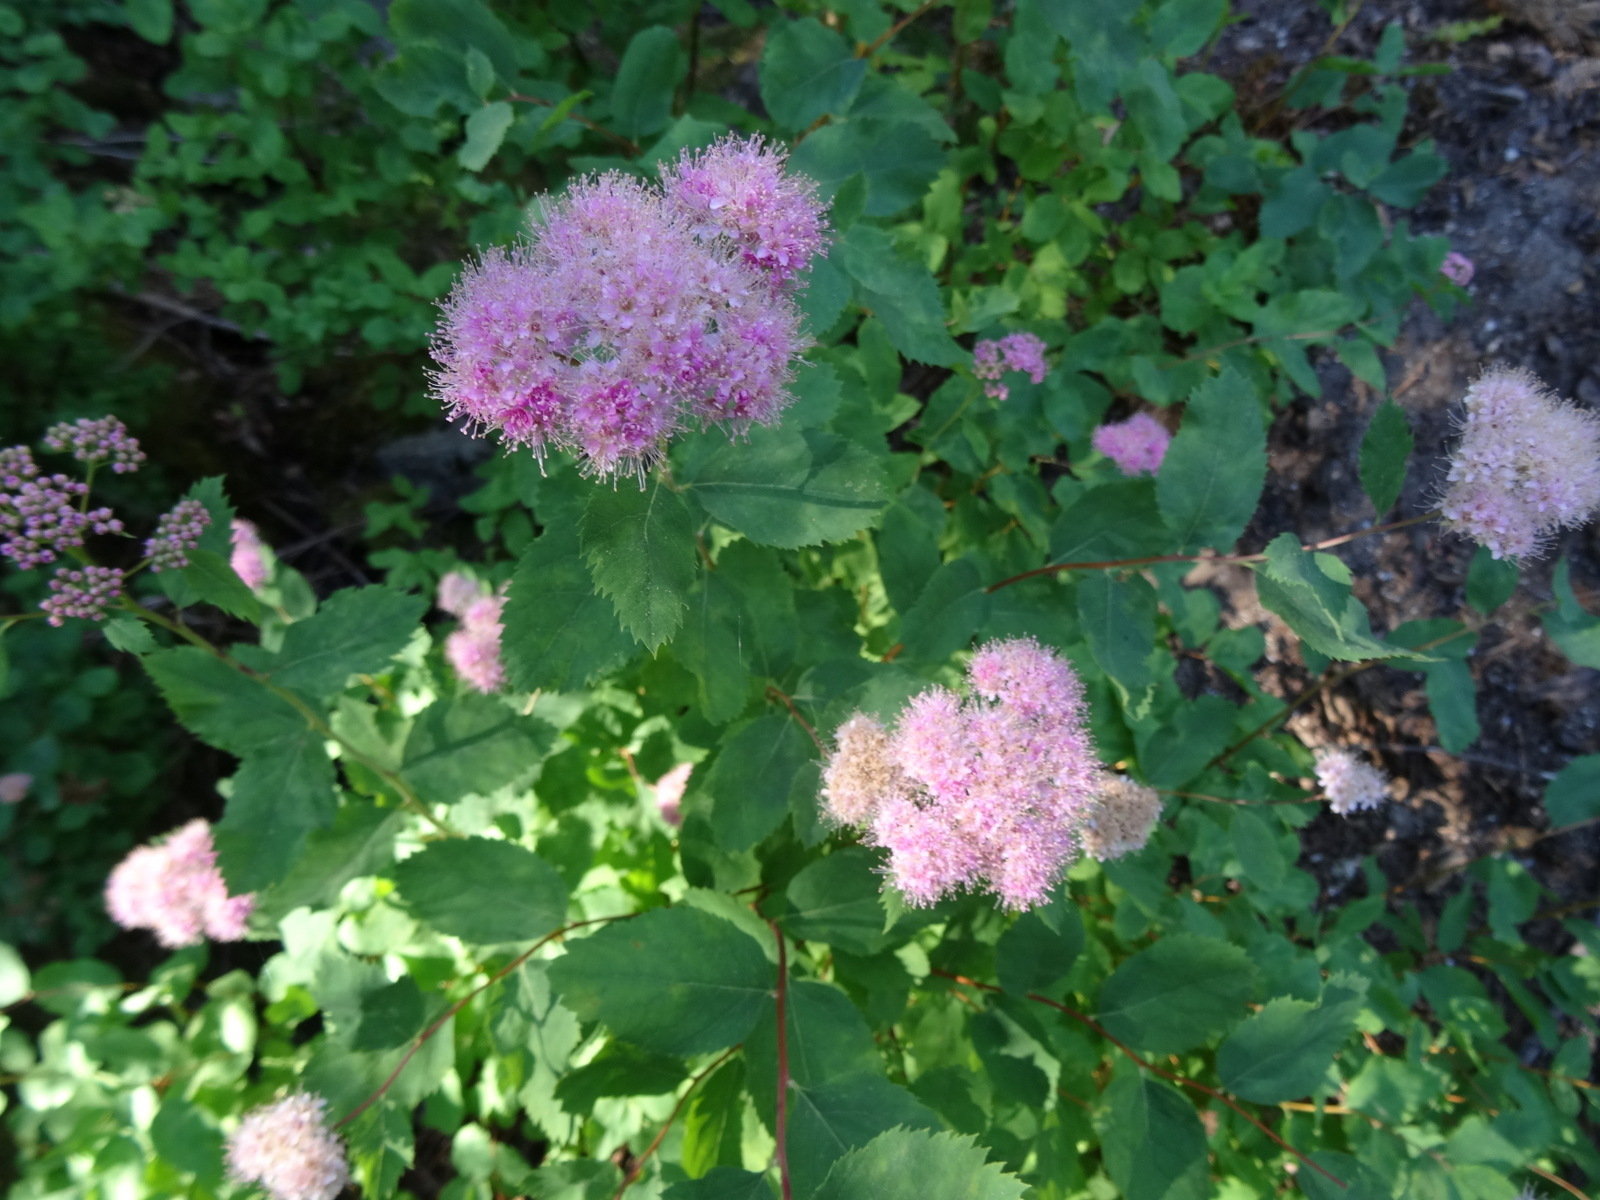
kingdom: Plantae
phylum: Tracheophyta
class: Magnoliopsida
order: Rosales
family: Rosaceae
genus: Spiraea
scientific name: Spiraea splendens
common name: Subalpine meadowsweet
